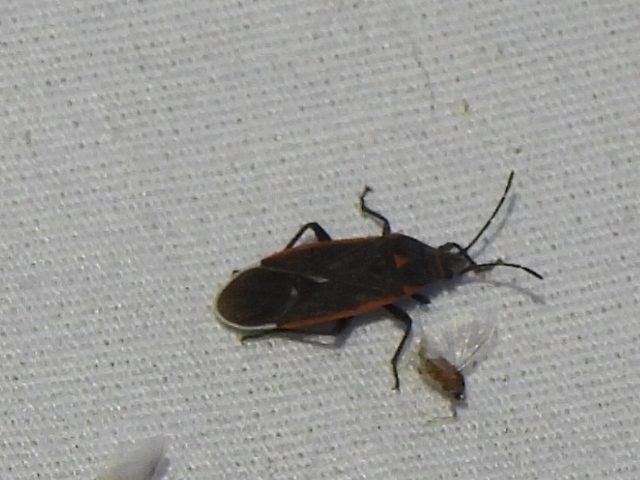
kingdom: Animalia
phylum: Arthropoda
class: Insecta
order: Hemiptera
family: Lygaeidae
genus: Melacoryphus
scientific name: Melacoryphus lateralis
